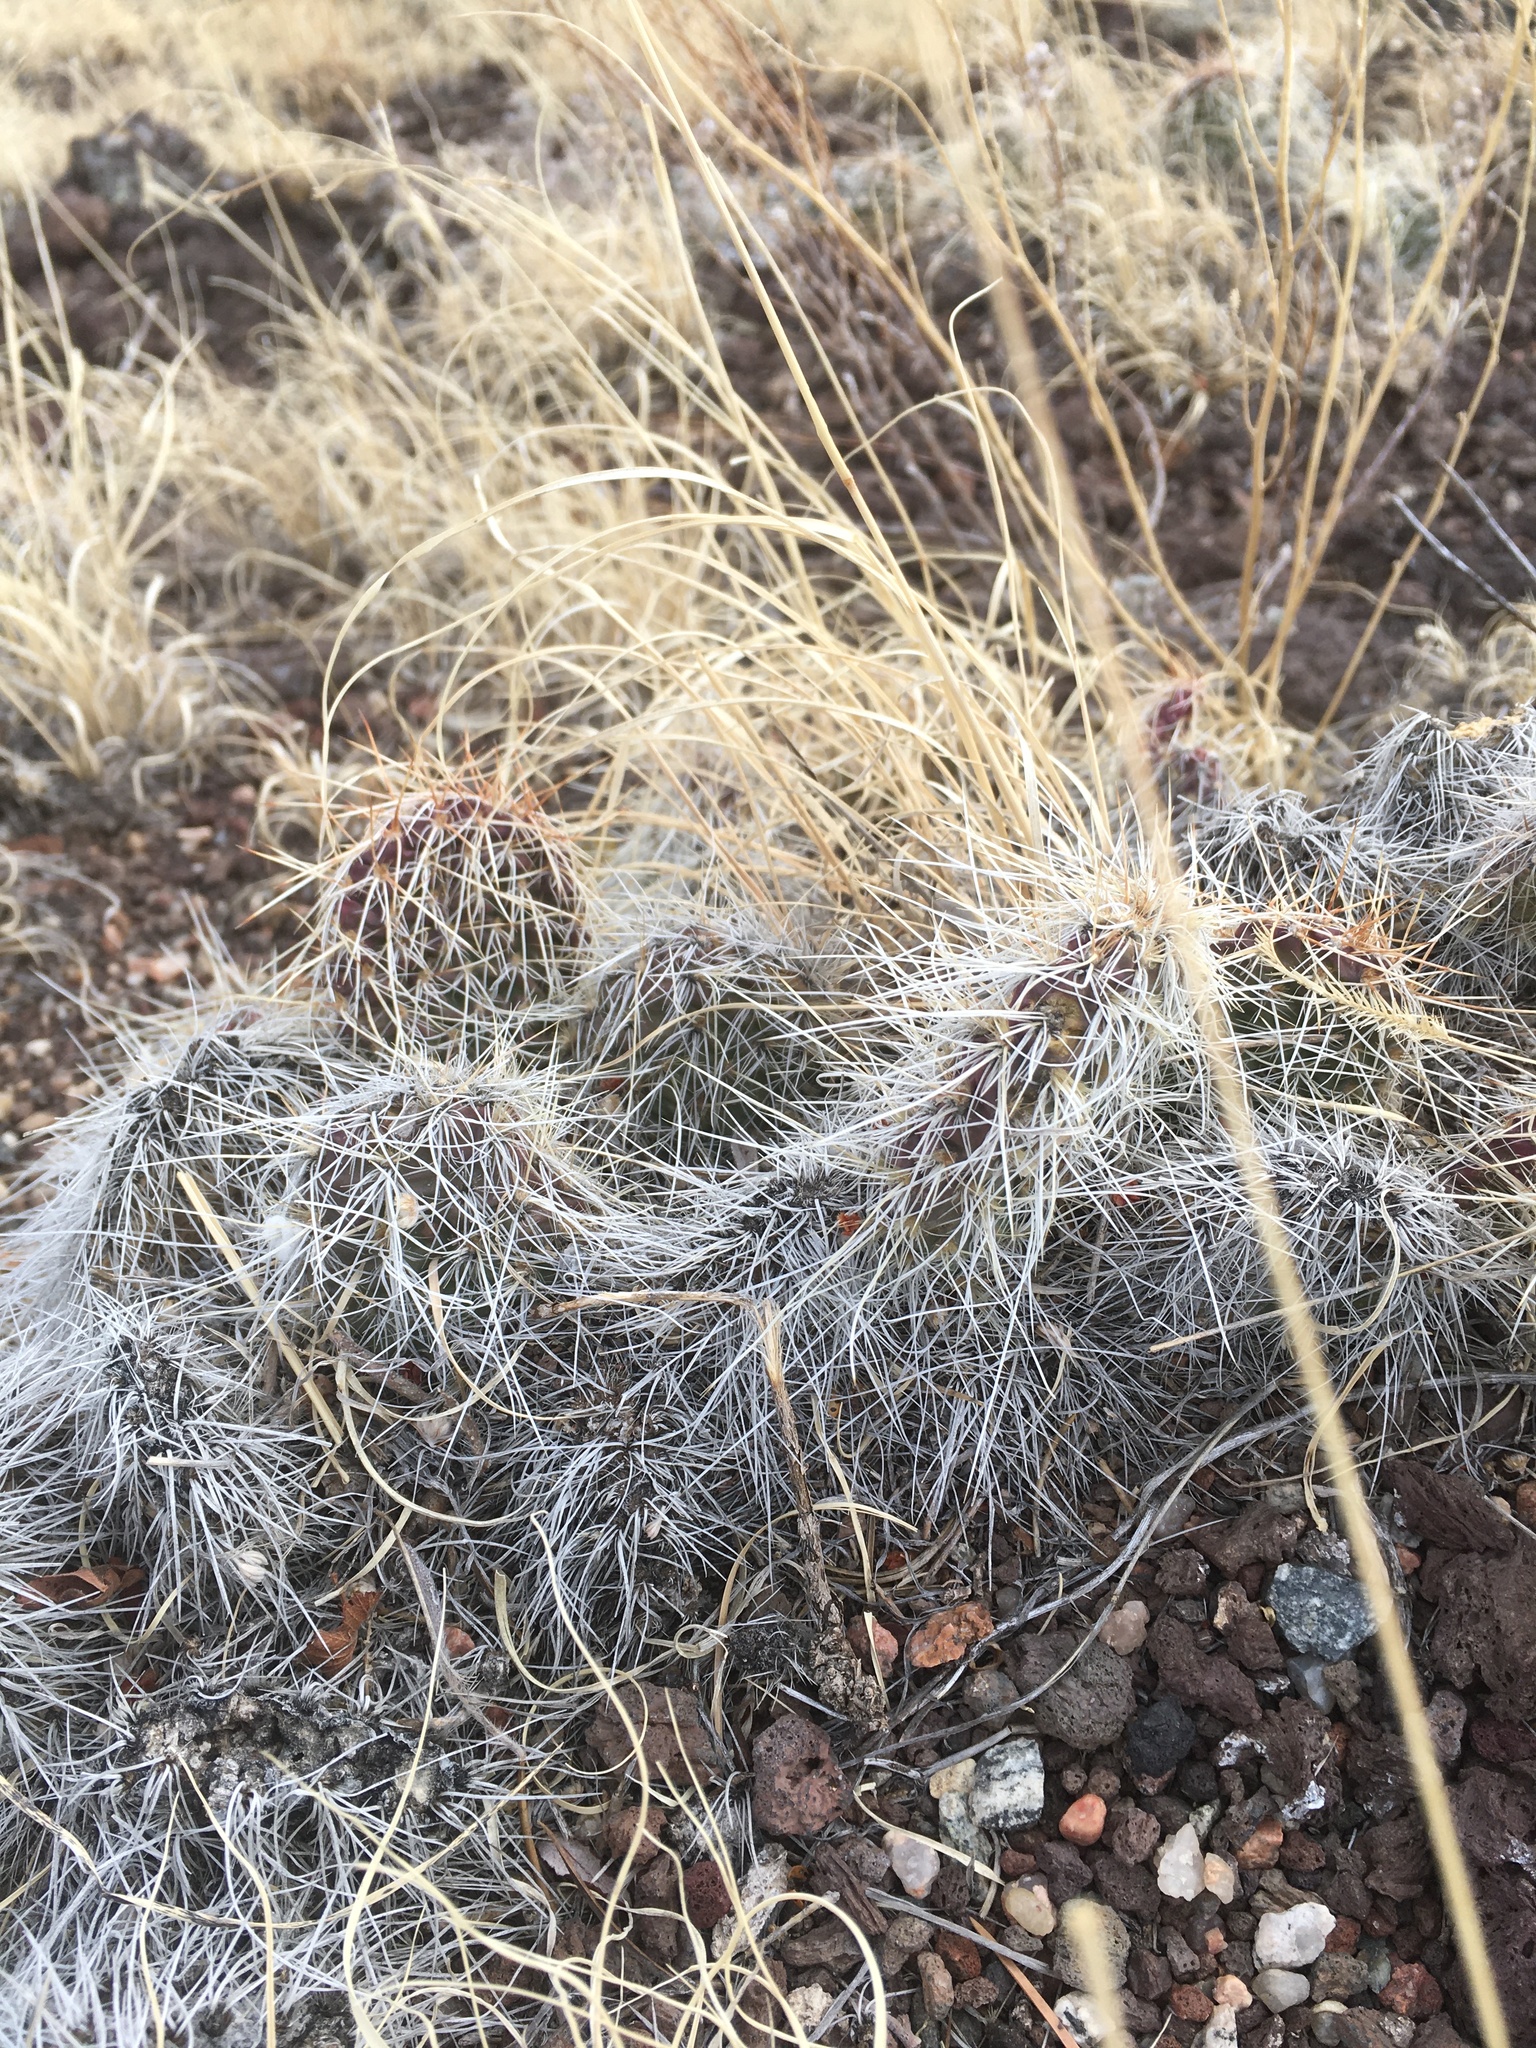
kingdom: Plantae
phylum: Tracheophyta
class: Magnoliopsida
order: Caryophyllales
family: Cactaceae
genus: Opuntia
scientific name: Opuntia polyacantha
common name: Plains prickly-pear
